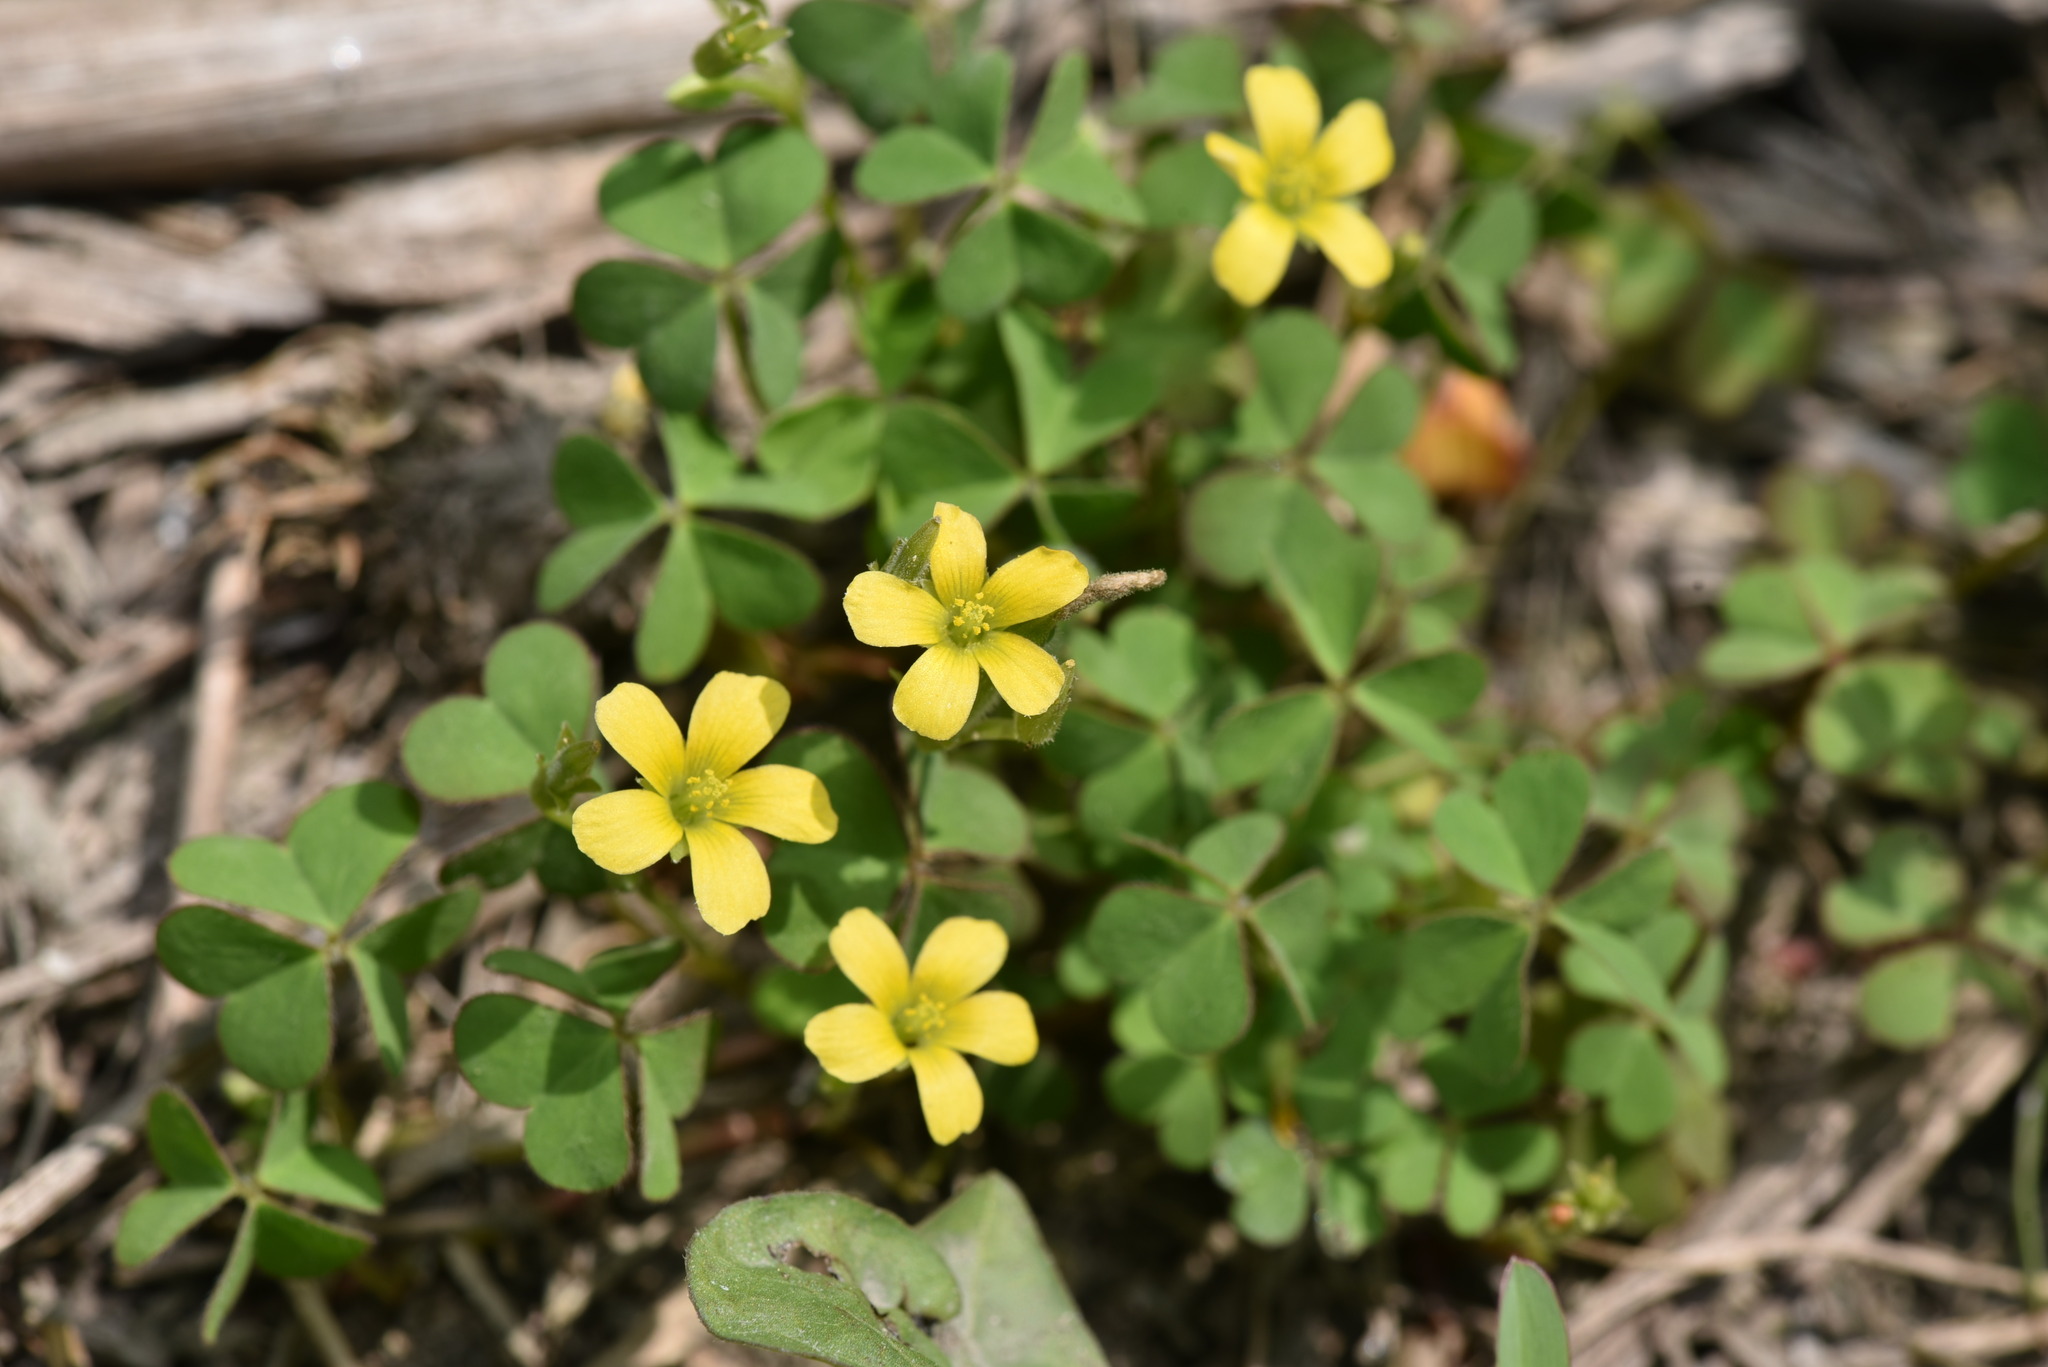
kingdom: Plantae
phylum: Tracheophyta
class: Magnoliopsida
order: Oxalidales
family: Oxalidaceae
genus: Oxalis
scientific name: Oxalis corniculata
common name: Procumbent yellow-sorrel
